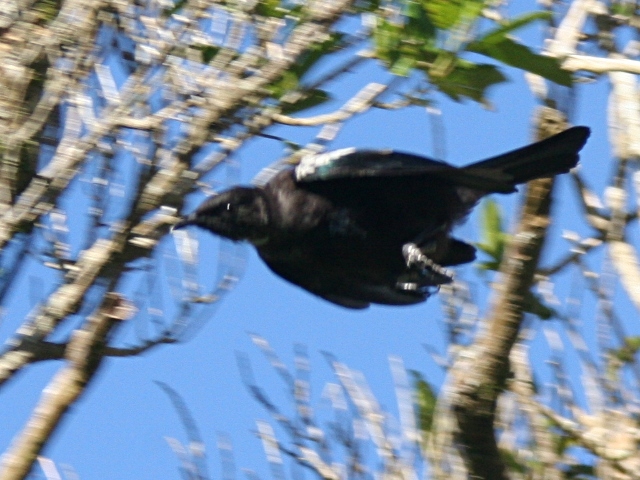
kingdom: Animalia
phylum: Chordata
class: Aves
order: Passeriformes
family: Meliphagidae
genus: Prosthemadera
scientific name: Prosthemadera novaeseelandiae
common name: Tui
